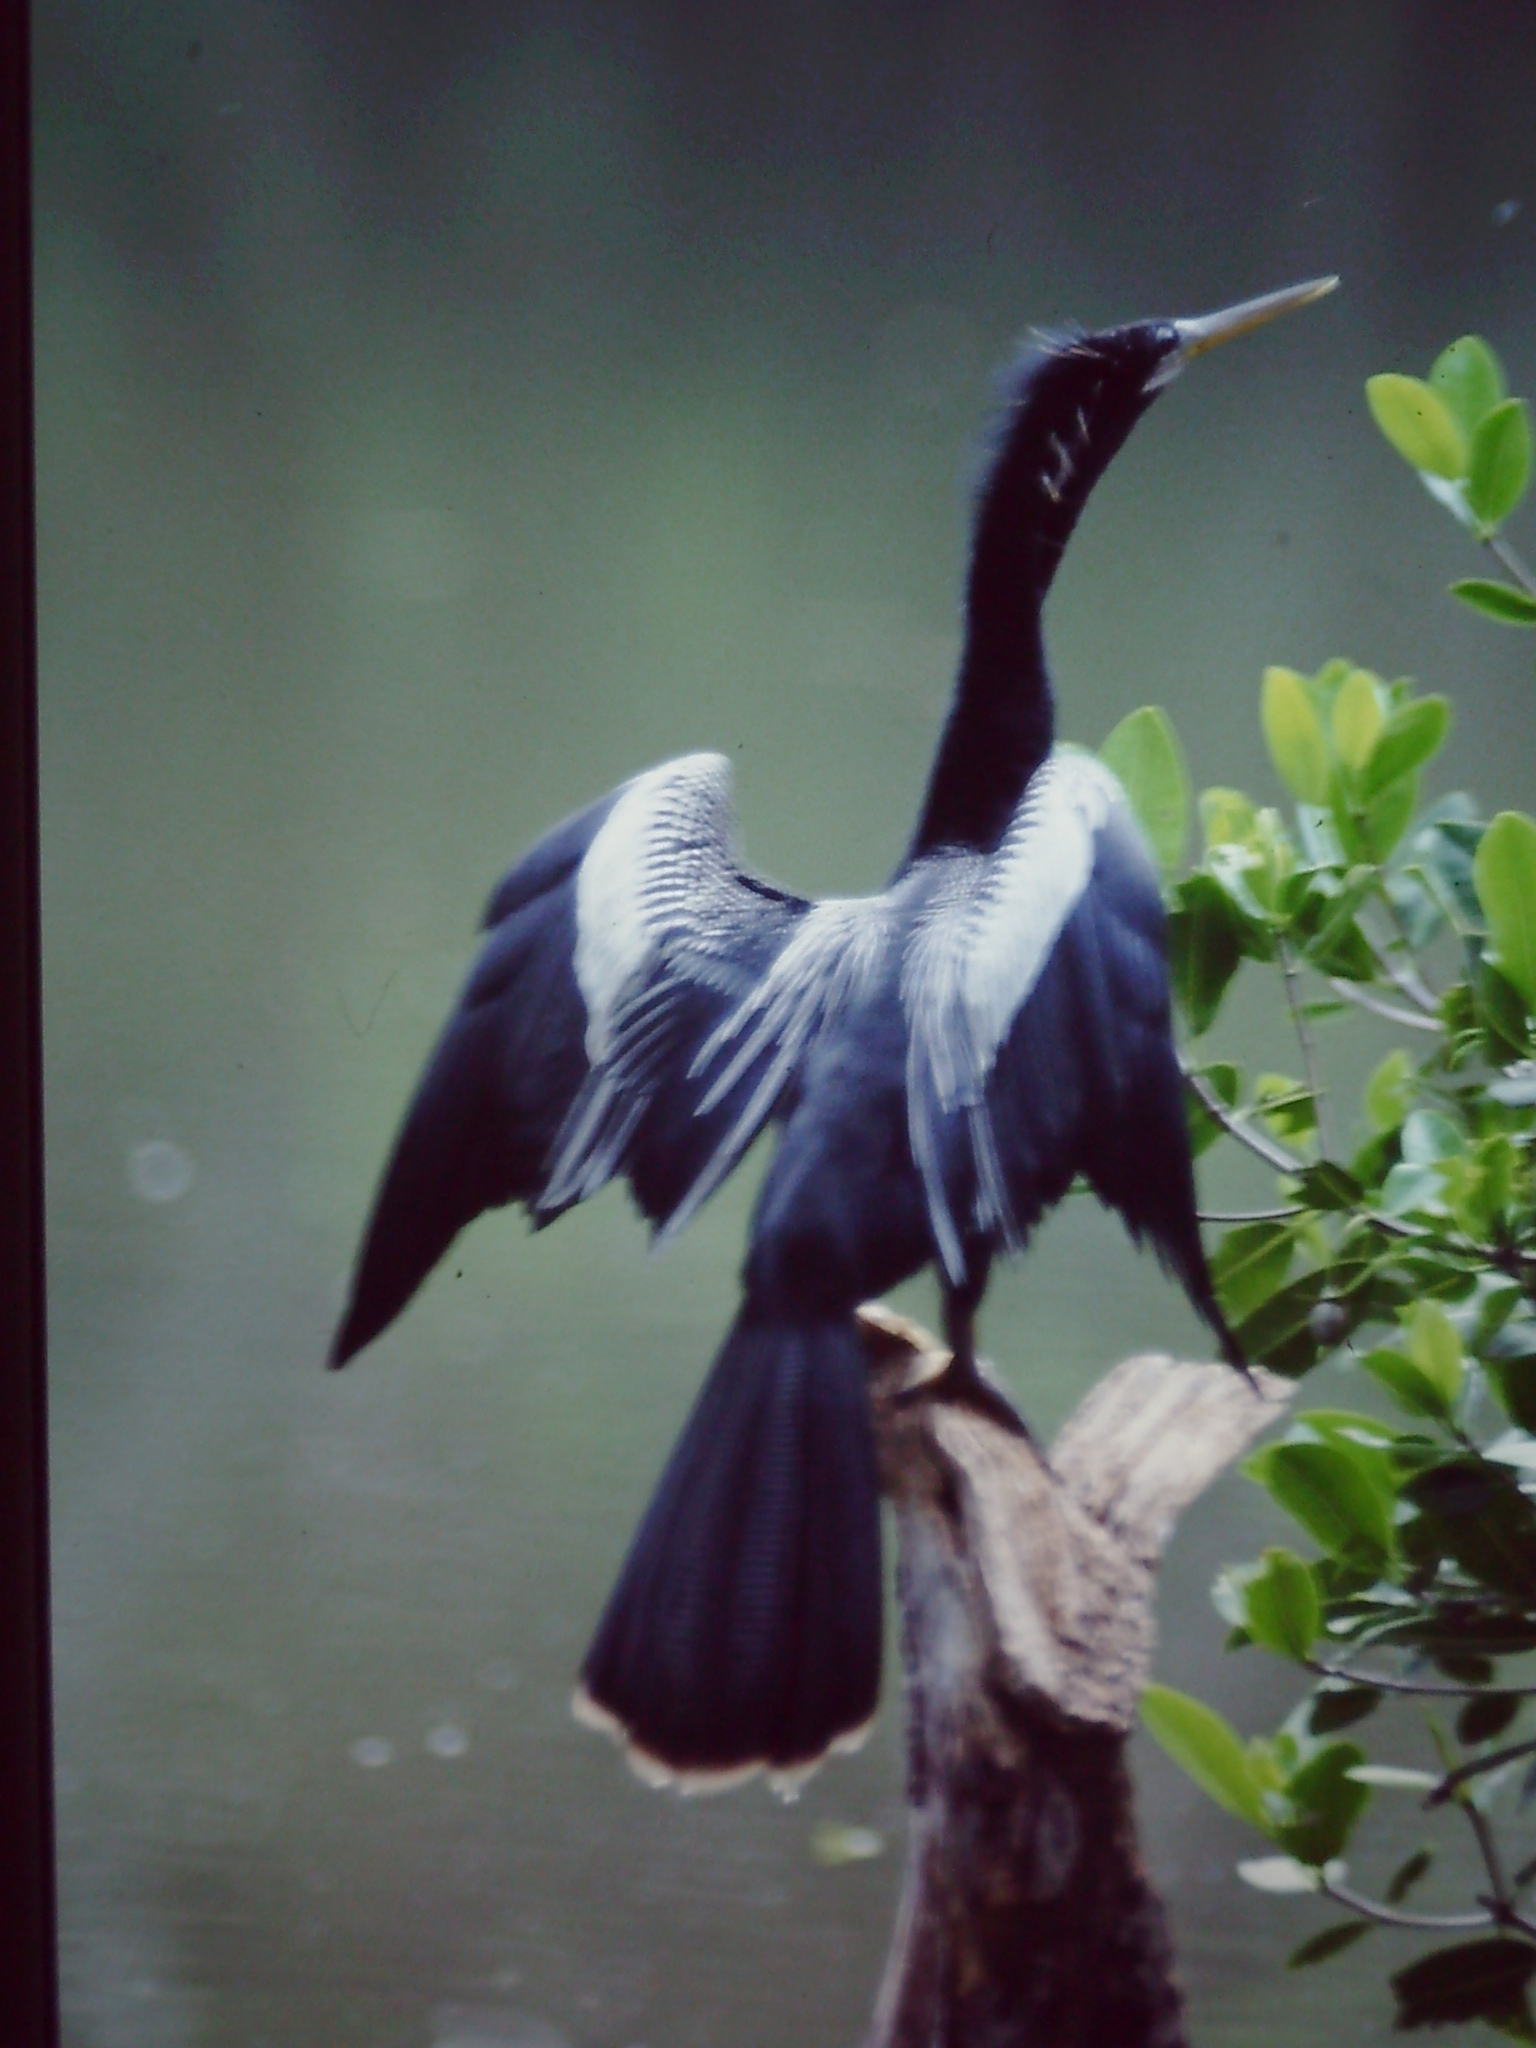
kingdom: Animalia
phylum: Chordata
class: Aves
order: Suliformes
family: Anhingidae
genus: Anhinga
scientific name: Anhinga anhinga
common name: Anhinga
